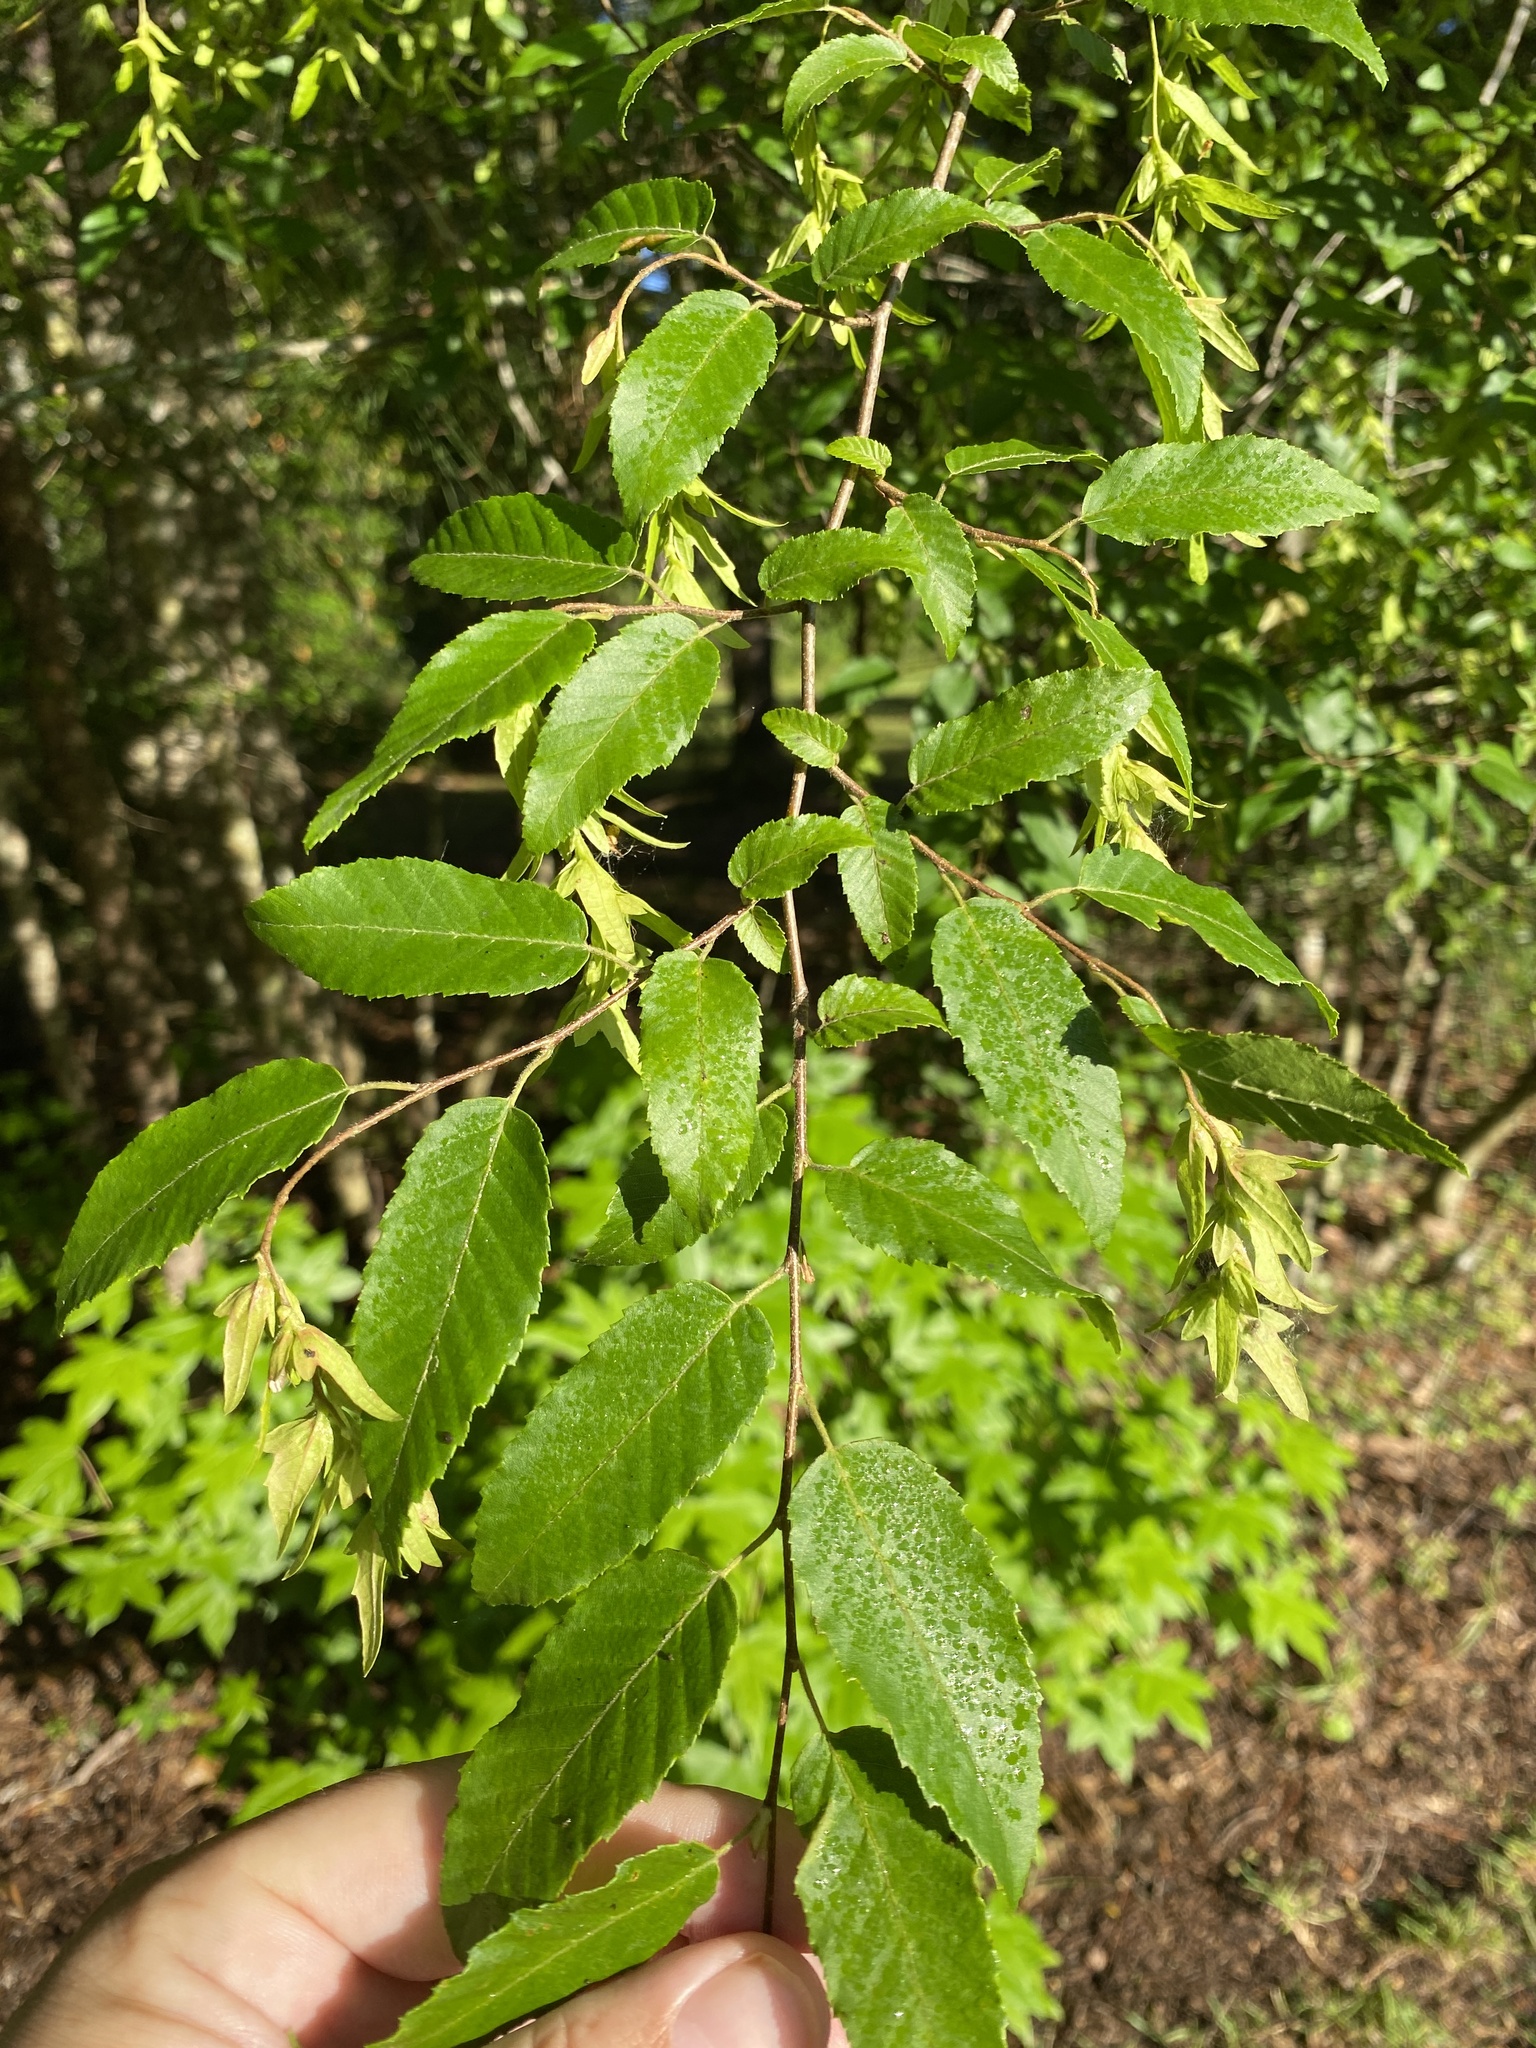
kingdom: Plantae
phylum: Tracheophyta
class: Magnoliopsida
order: Fagales
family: Betulaceae
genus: Carpinus
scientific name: Carpinus caroliniana
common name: American hornbeam
